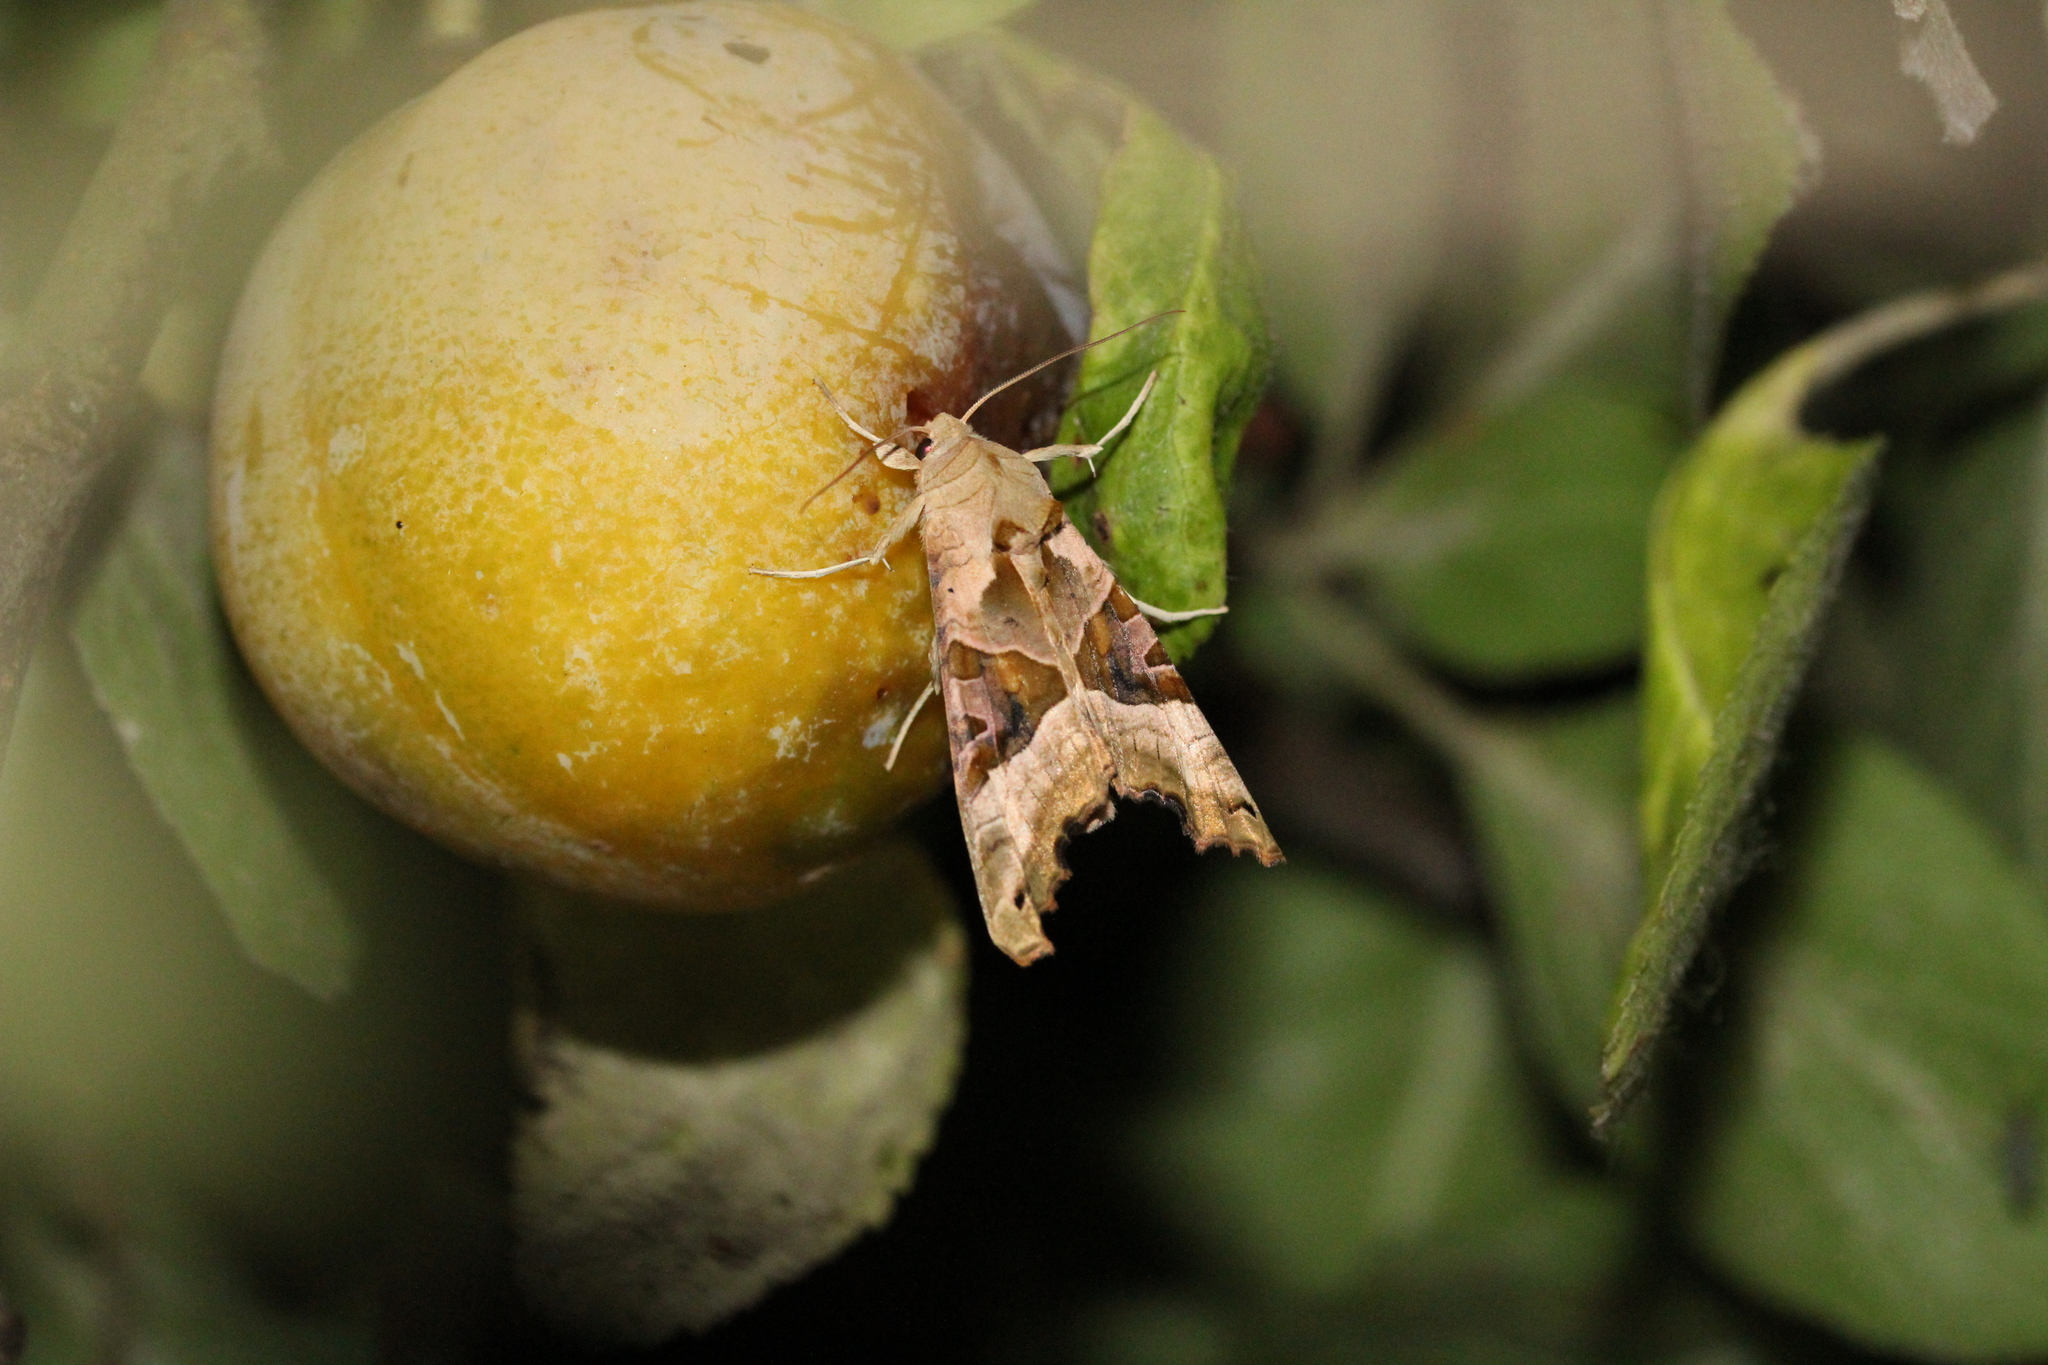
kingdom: Animalia
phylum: Arthropoda
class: Insecta
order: Lepidoptera
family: Noctuidae
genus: Phlogophora
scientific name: Phlogophora meticulosa
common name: Angle shades
